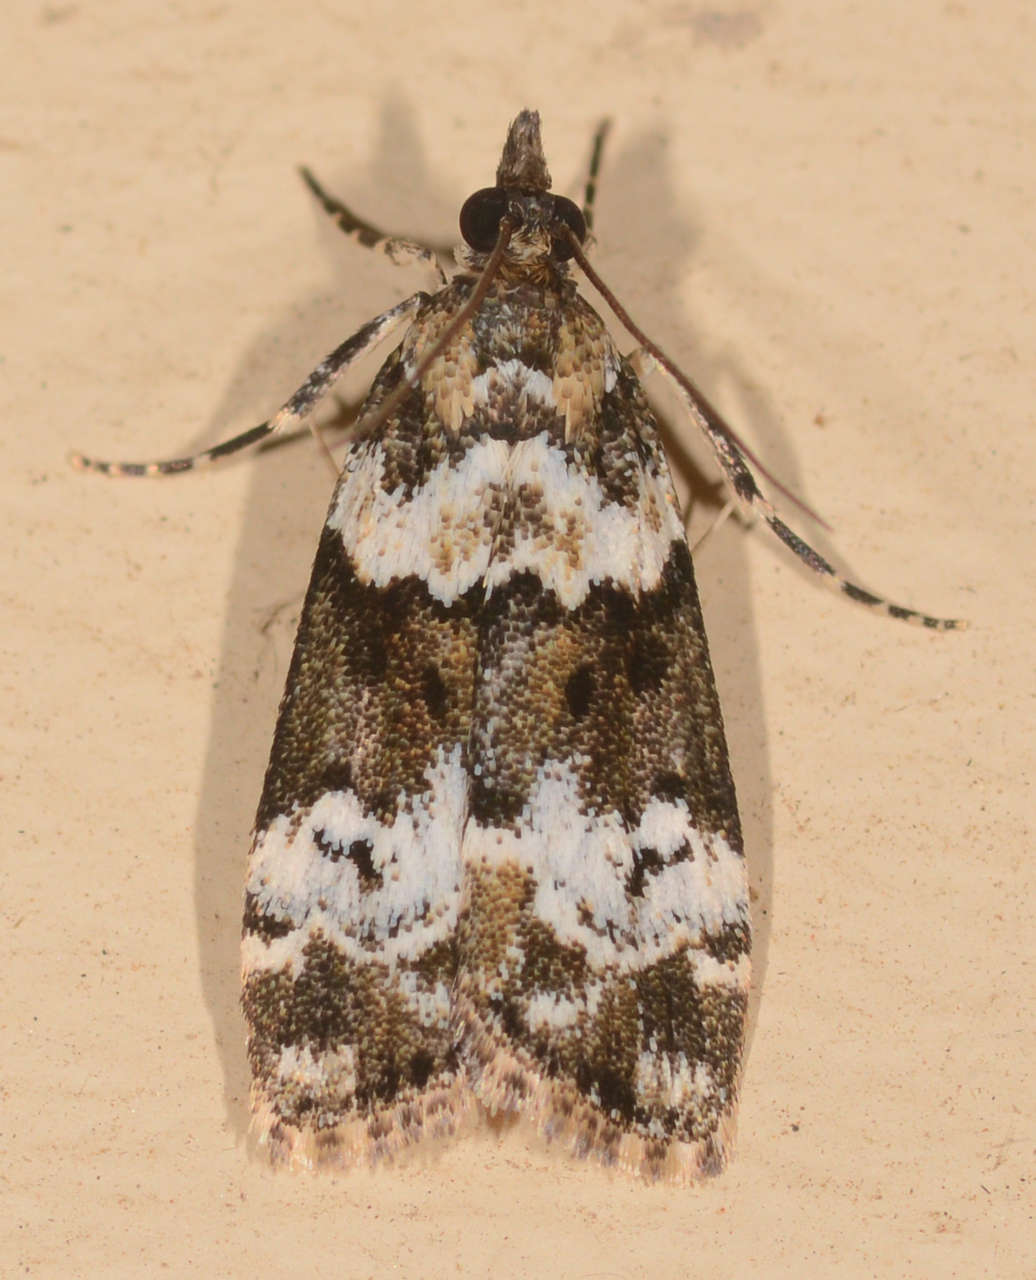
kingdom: Animalia
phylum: Arthropoda
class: Insecta
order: Lepidoptera
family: Crambidae
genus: Eudonia
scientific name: Eudonia
